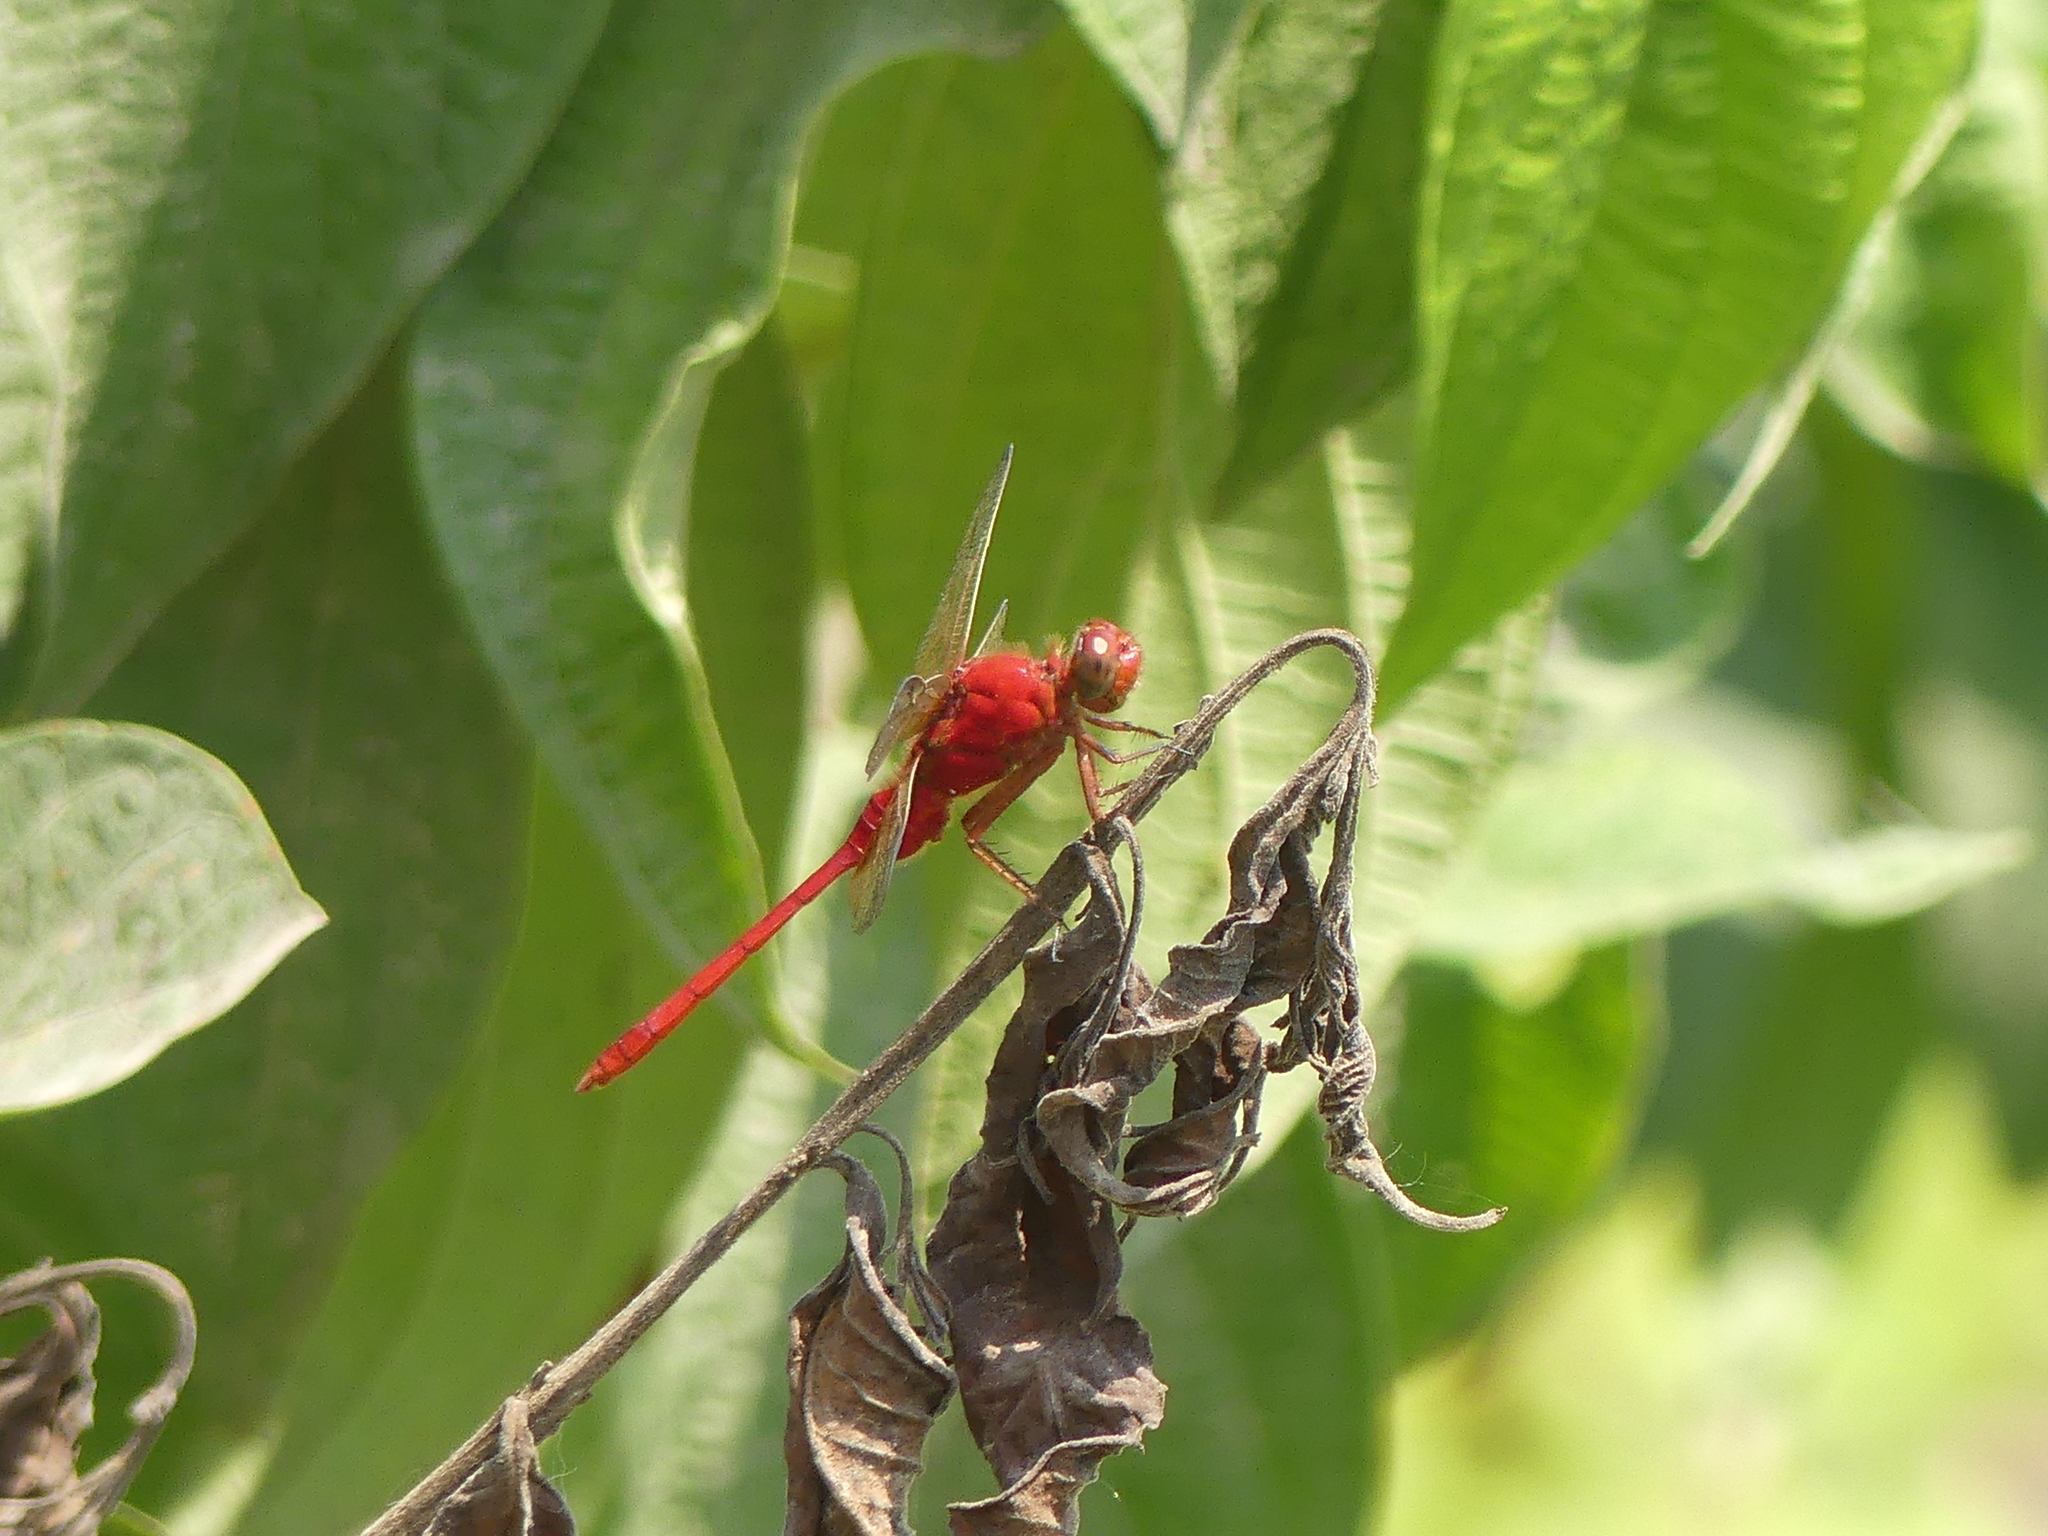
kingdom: Animalia
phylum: Arthropoda
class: Insecta
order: Odonata
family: Libellulidae
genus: Erythemis
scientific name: Erythemis haematogastra
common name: Red pondhawk
